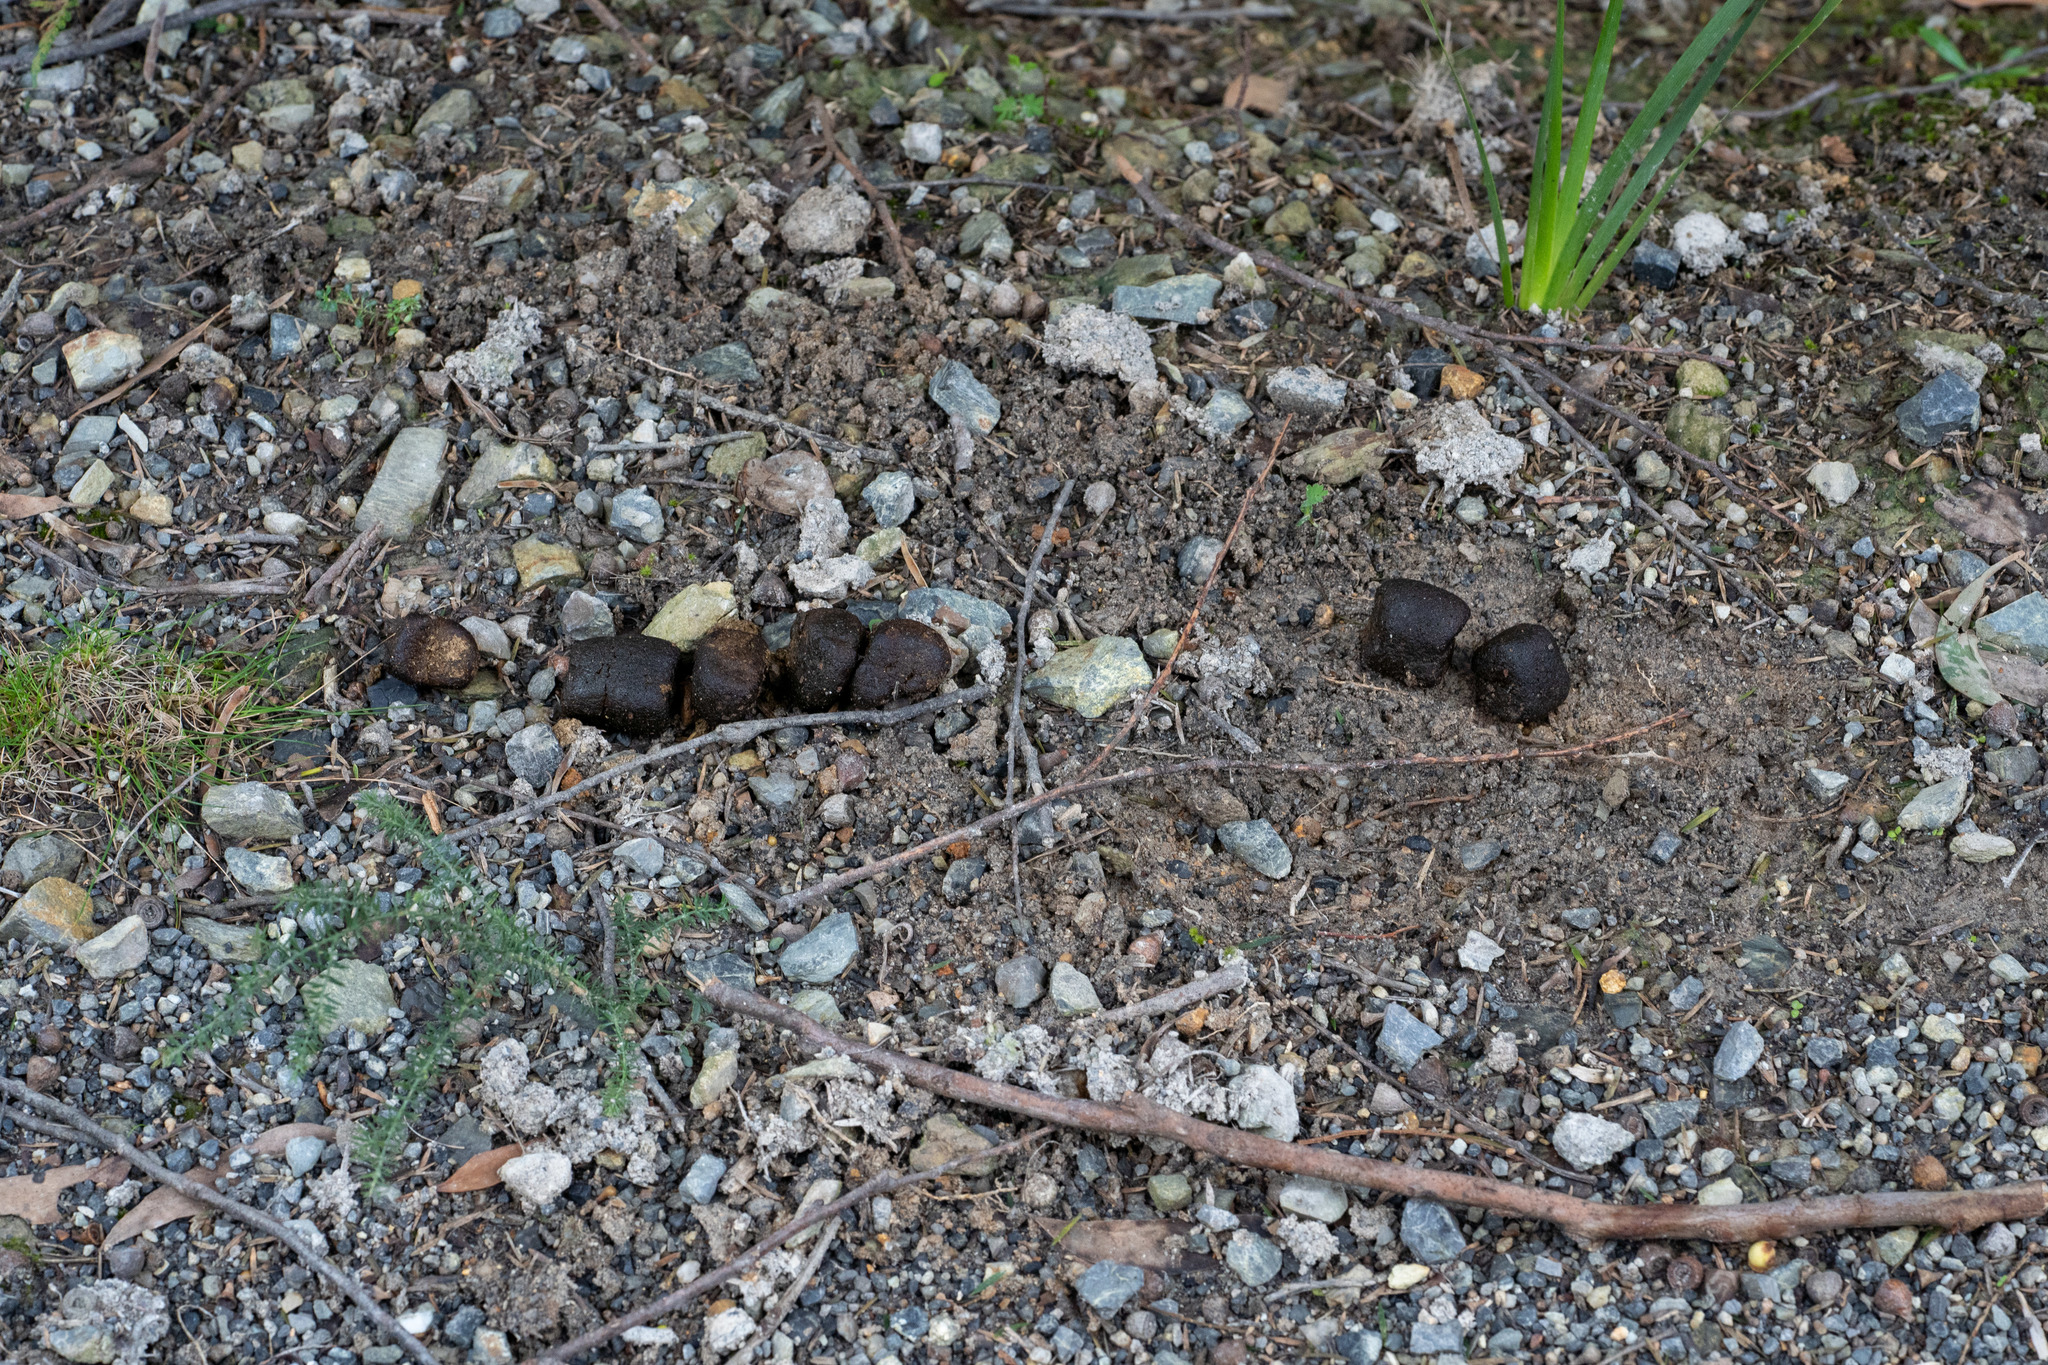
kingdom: Animalia
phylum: Chordata
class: Mammalia
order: Diprotodontia
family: Vombatidae
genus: Vombatus
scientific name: Vombatus ursinus
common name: Common wombat
